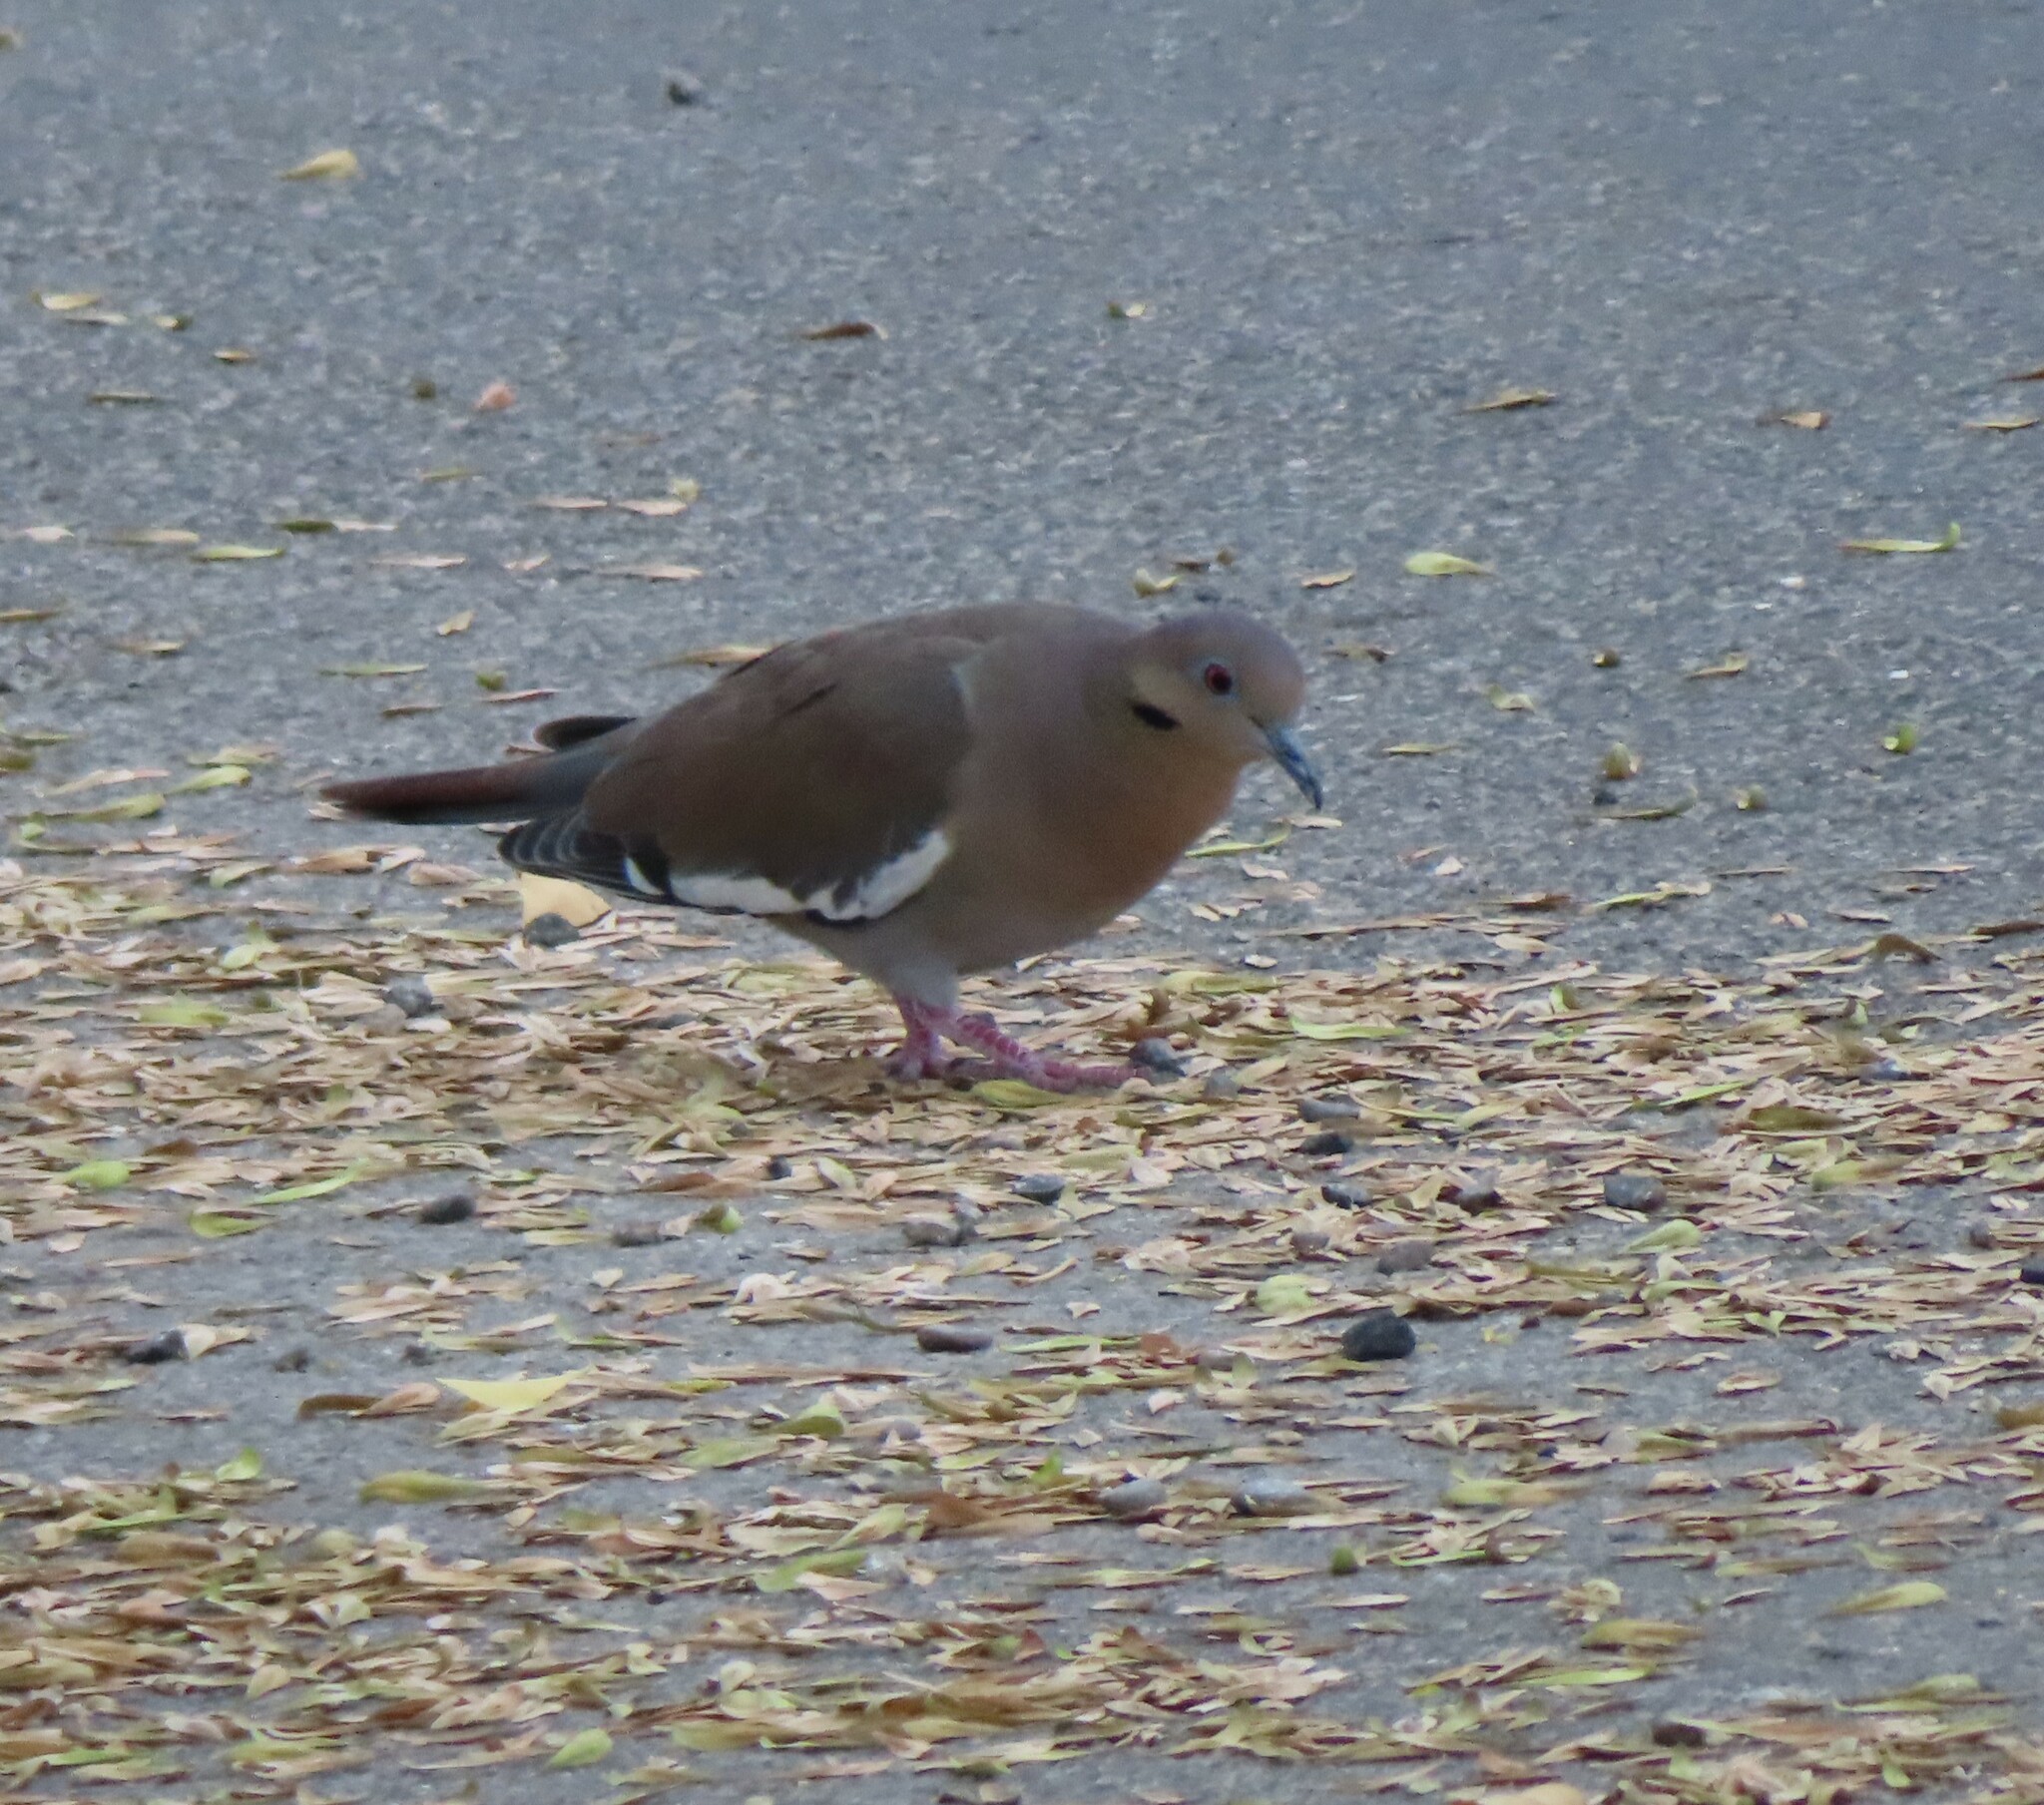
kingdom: Animalia
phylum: Chordata
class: Aves
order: Columbiformes
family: Columbidae
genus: Zenaida
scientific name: Zenaida asiatica
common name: White-winged dove
